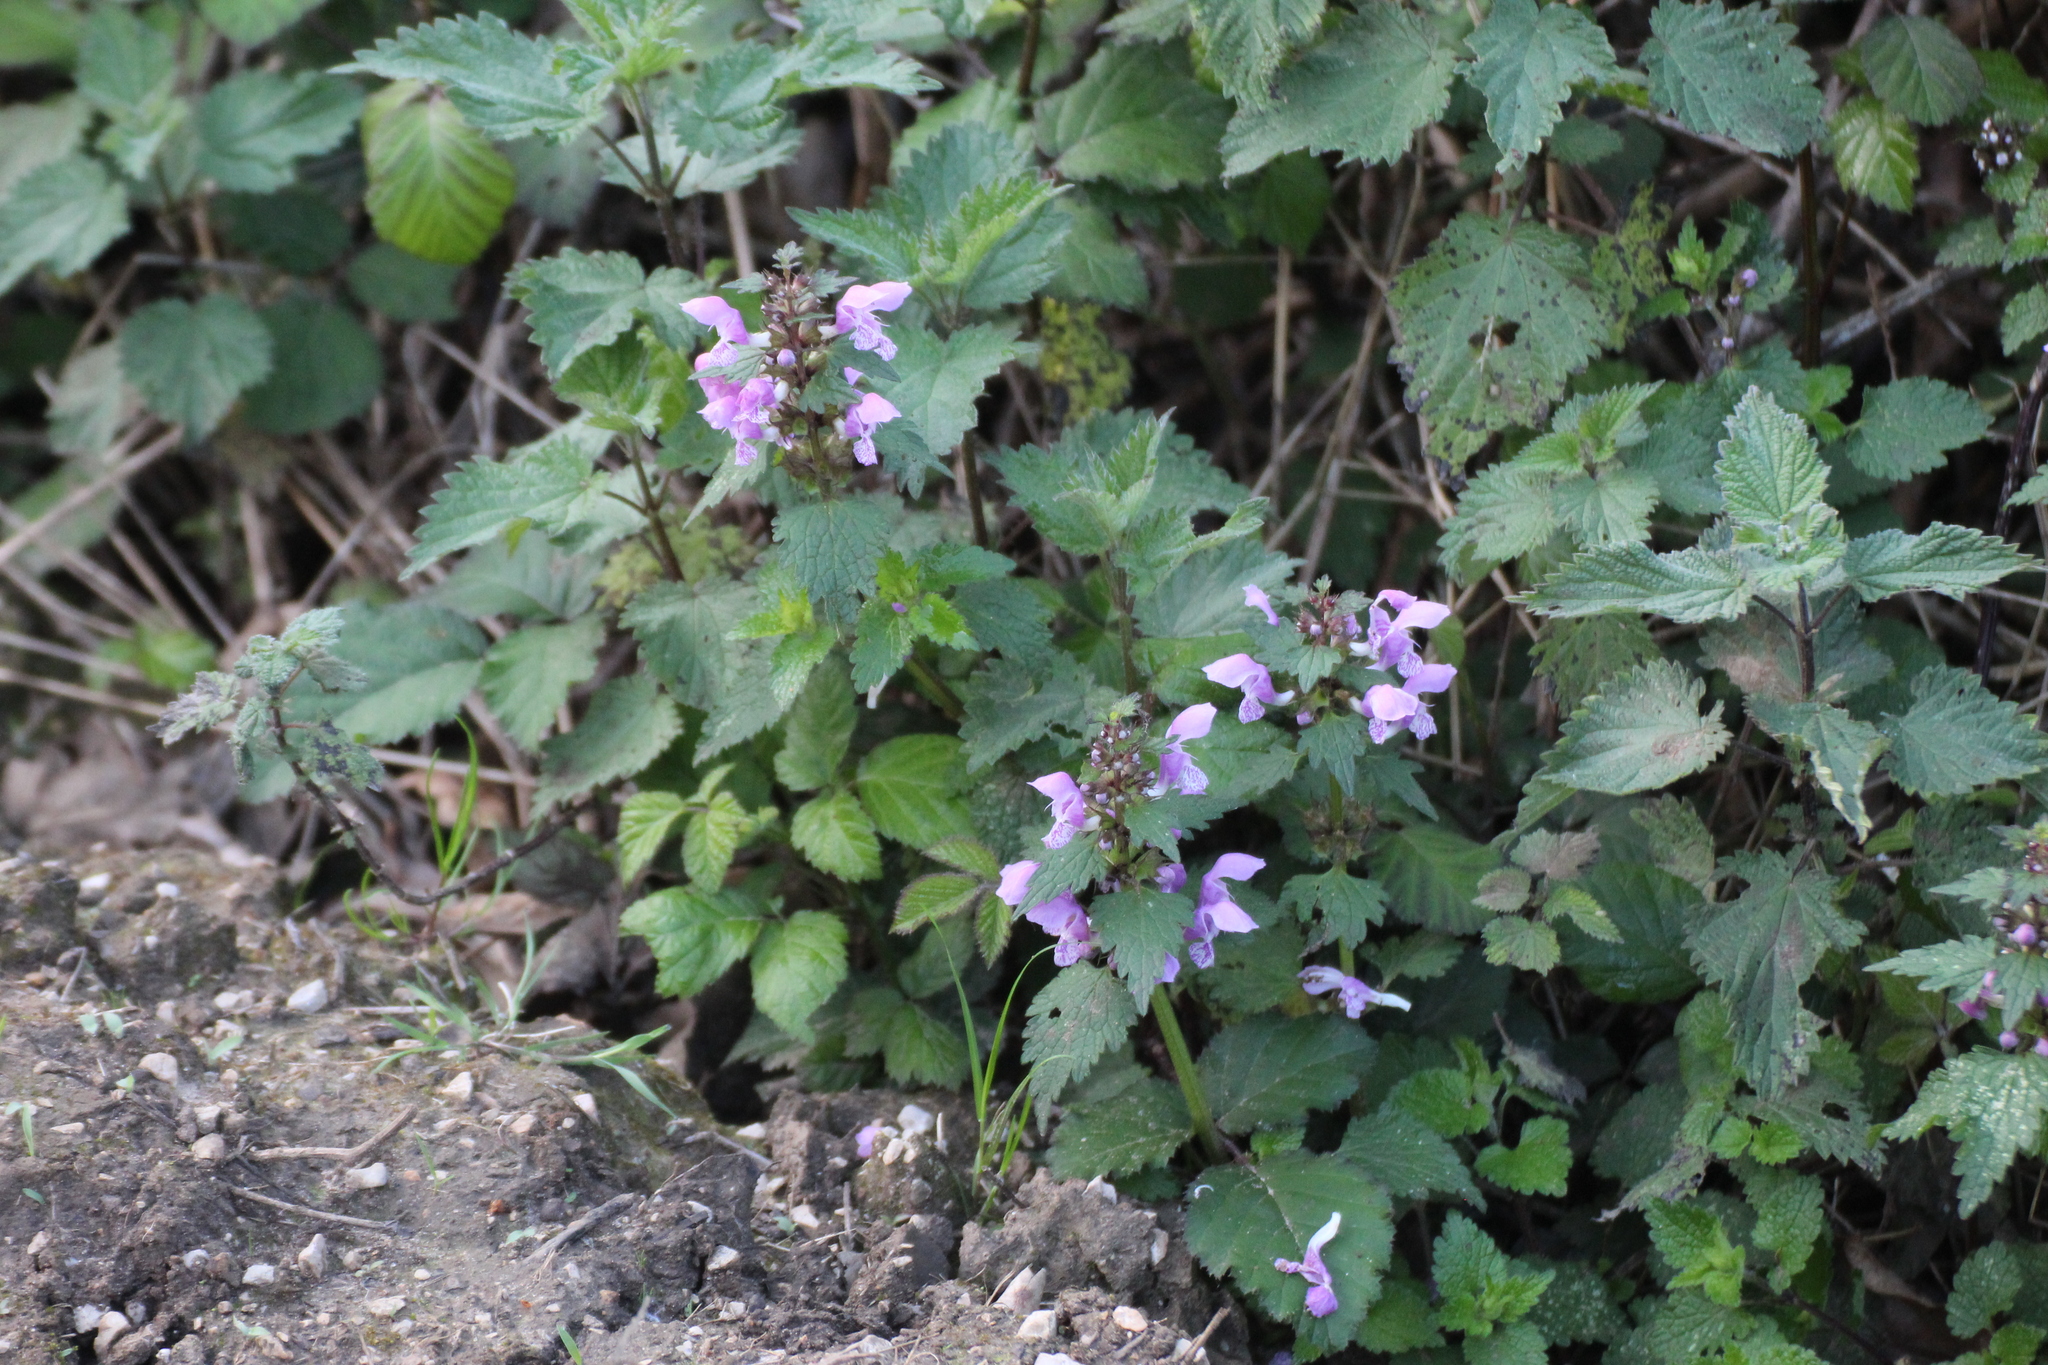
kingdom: Plantae
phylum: Tracheophyta
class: Magnoliopsida
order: Lamiales
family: Lamiaceae
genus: Lamium
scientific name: Lamium maculatum
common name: Spotted dead-nettle
